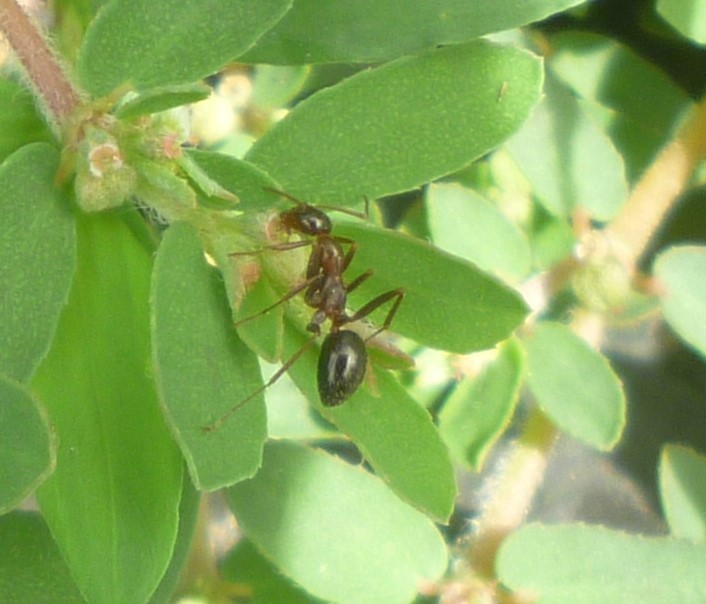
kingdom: Animalia
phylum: Arthropoda
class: Insecta
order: Hymenoptera
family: Formicidae
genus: Formica
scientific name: Formica
